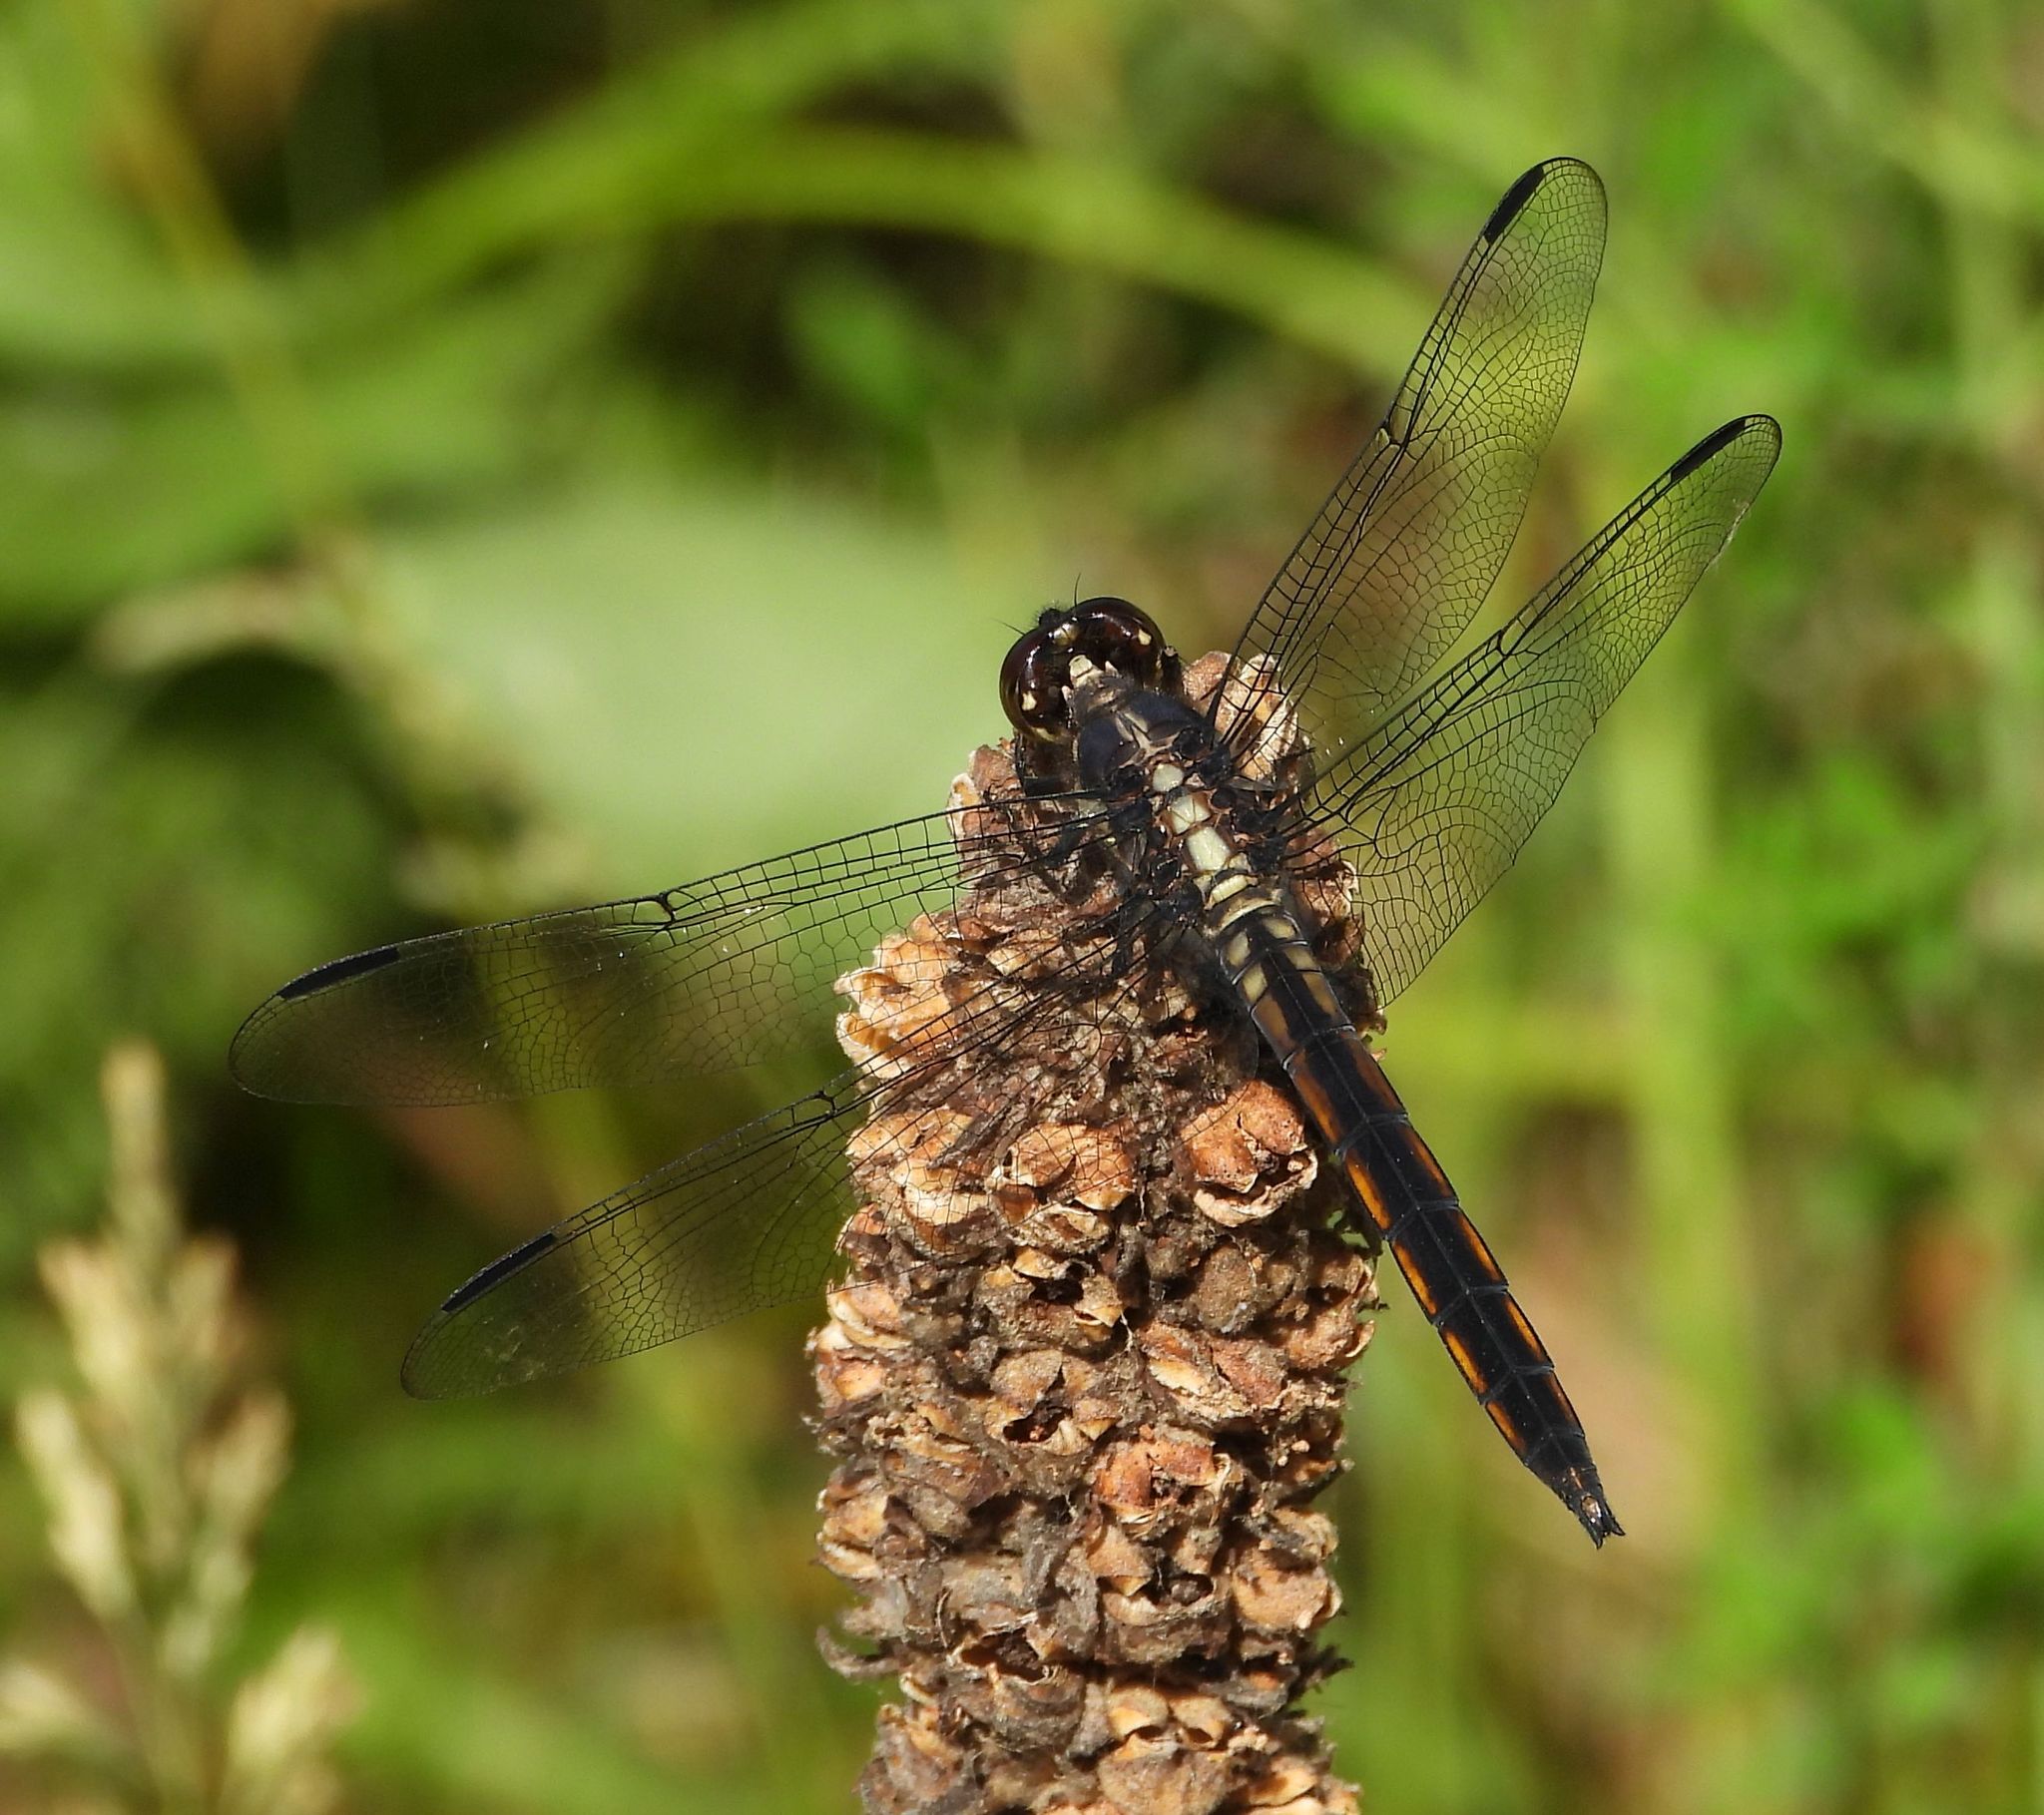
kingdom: Animalia
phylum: Arthropoda
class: Insecta
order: Odonata
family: Libellulidae
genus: Libellula
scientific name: Libellula incesta
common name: Slaty skimmer
